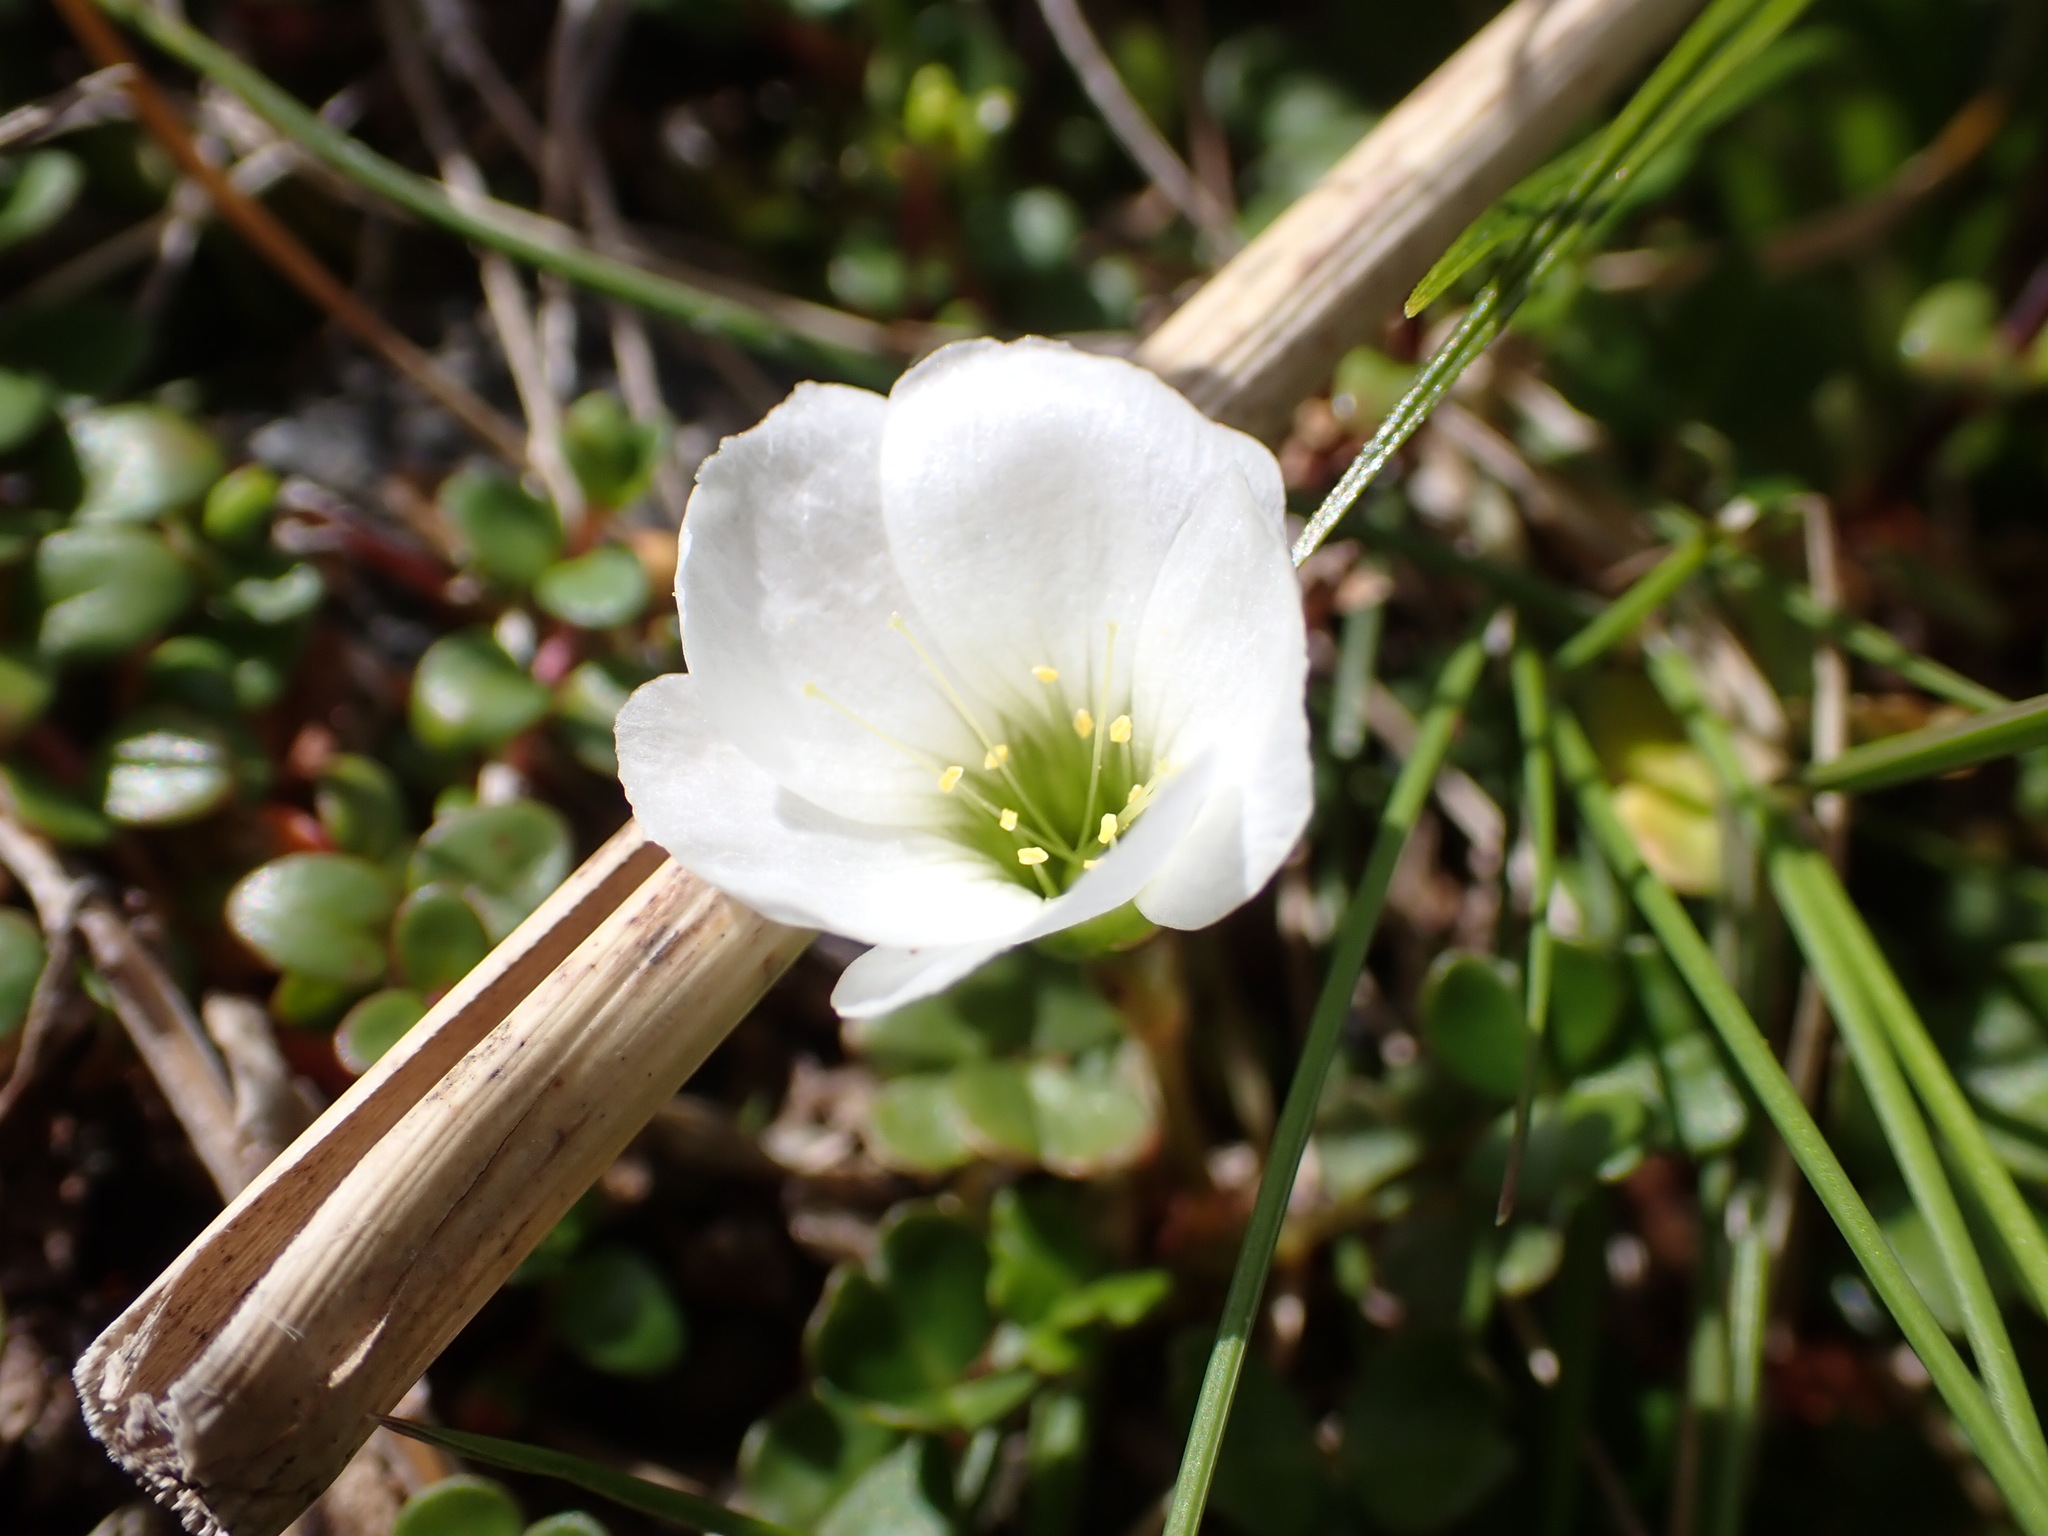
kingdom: Plantae
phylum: Tracheophyta
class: Magnoliopsida
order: Oxalidales
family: Oxalidaceae
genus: Oxalis
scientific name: Oxalis magellanica
